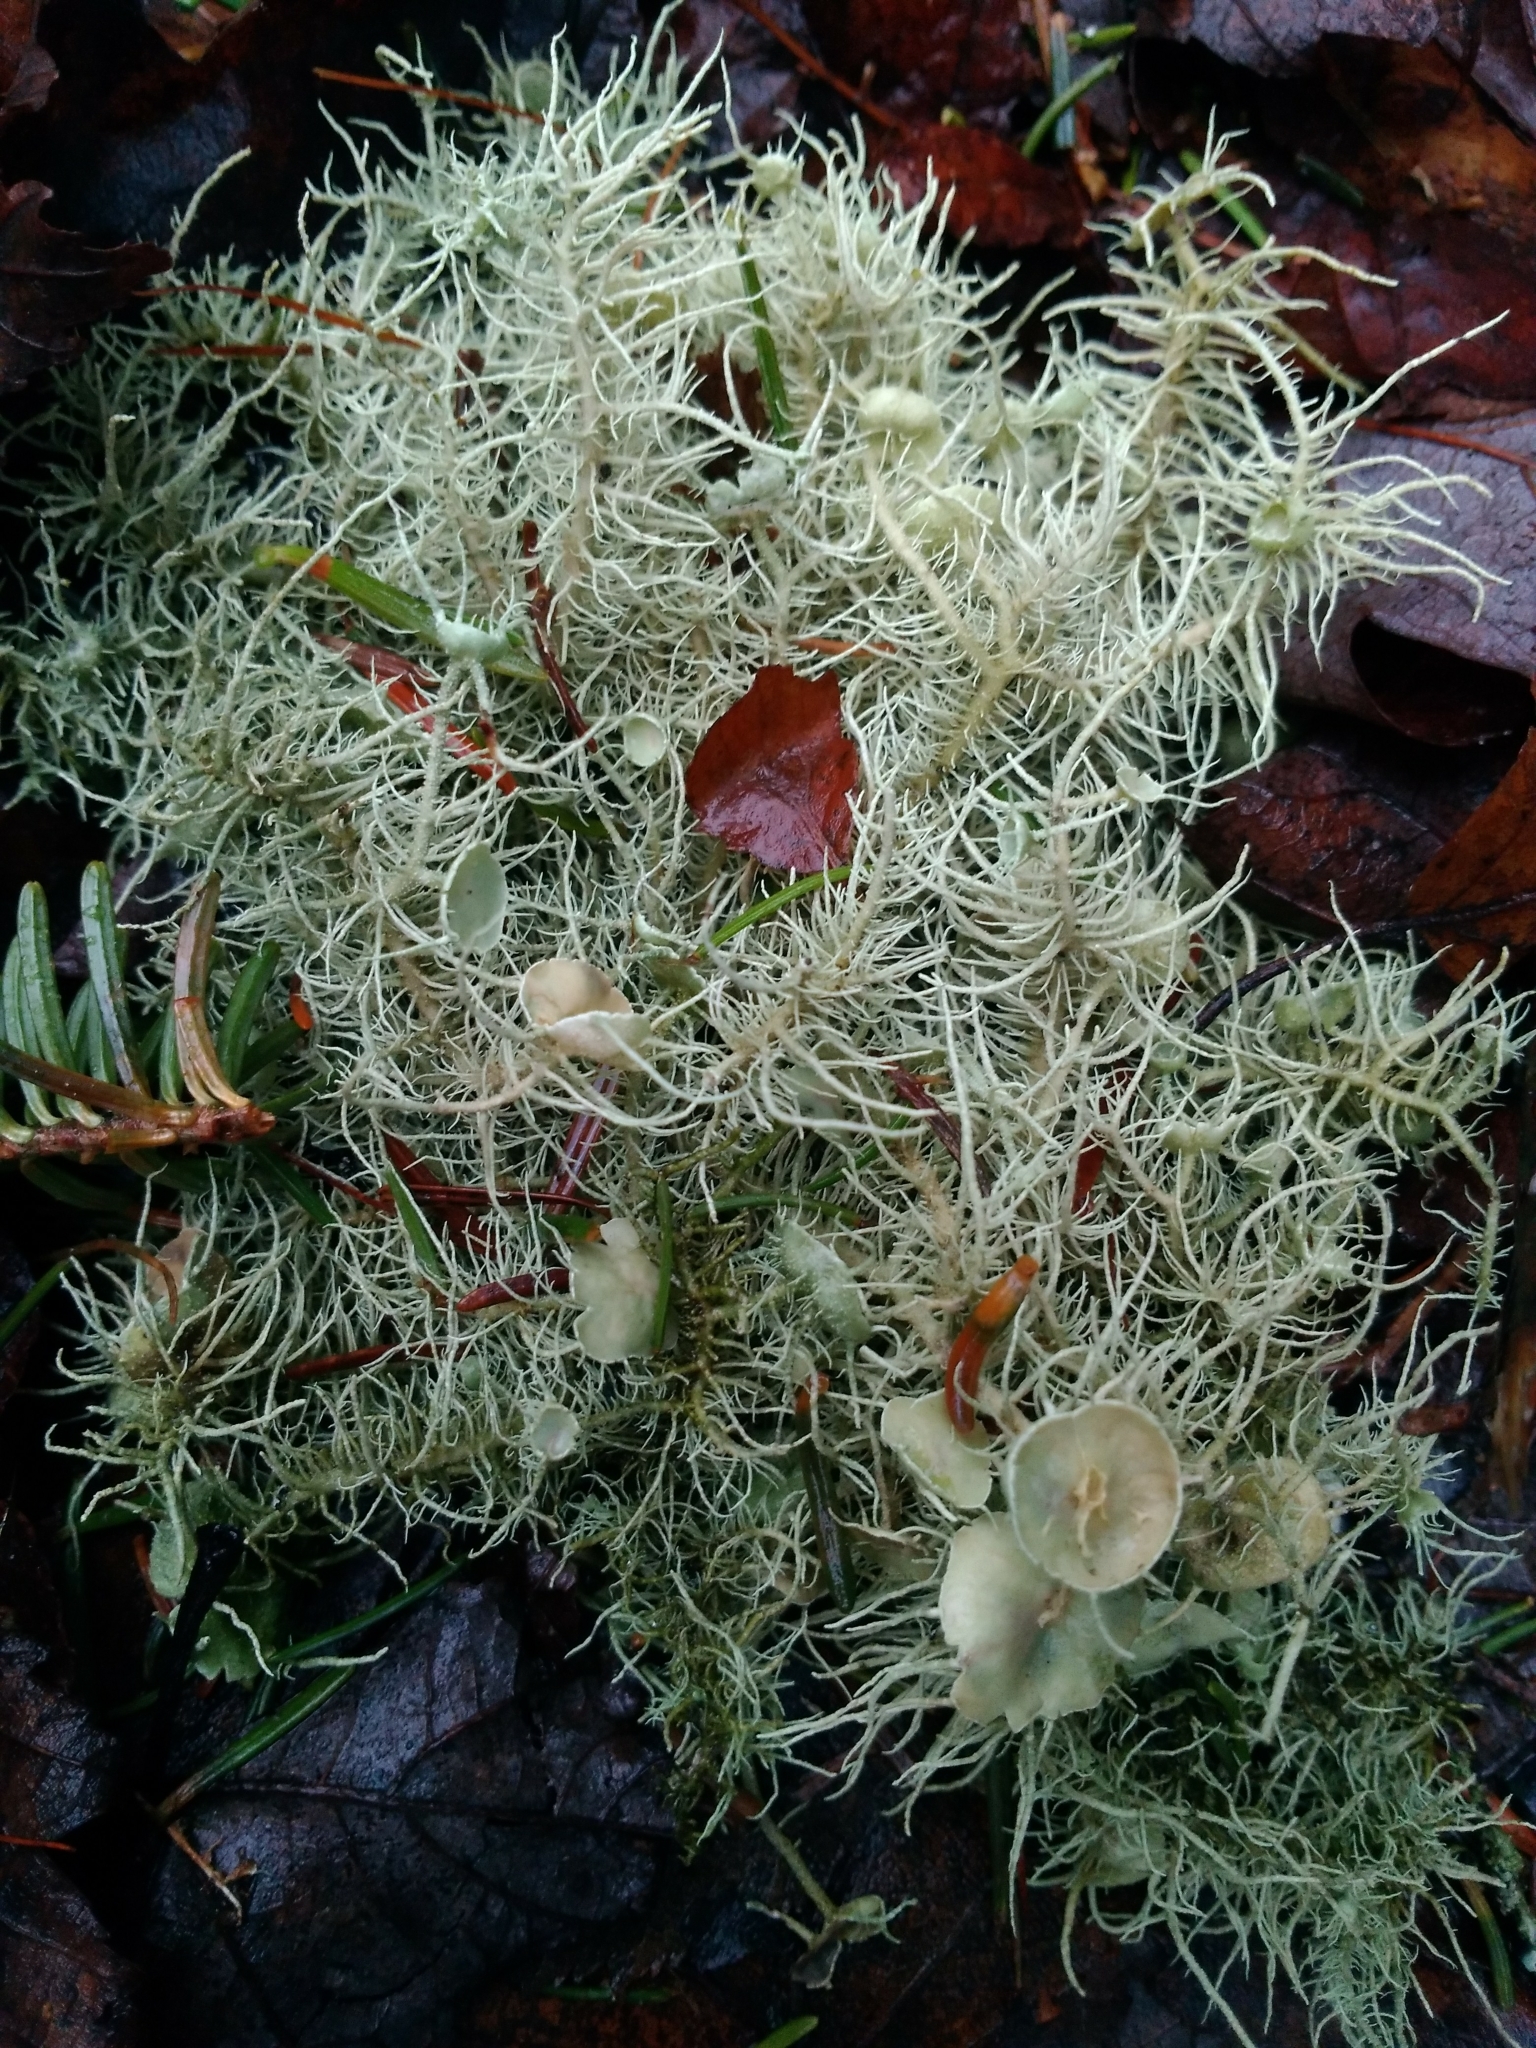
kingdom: Fungi
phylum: Ascomycota
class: Lecanoromycetes
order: Lecanorales
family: Parmeliaceae
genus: Usnea
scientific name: Usnea strigosa
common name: Bushy beard lichen
